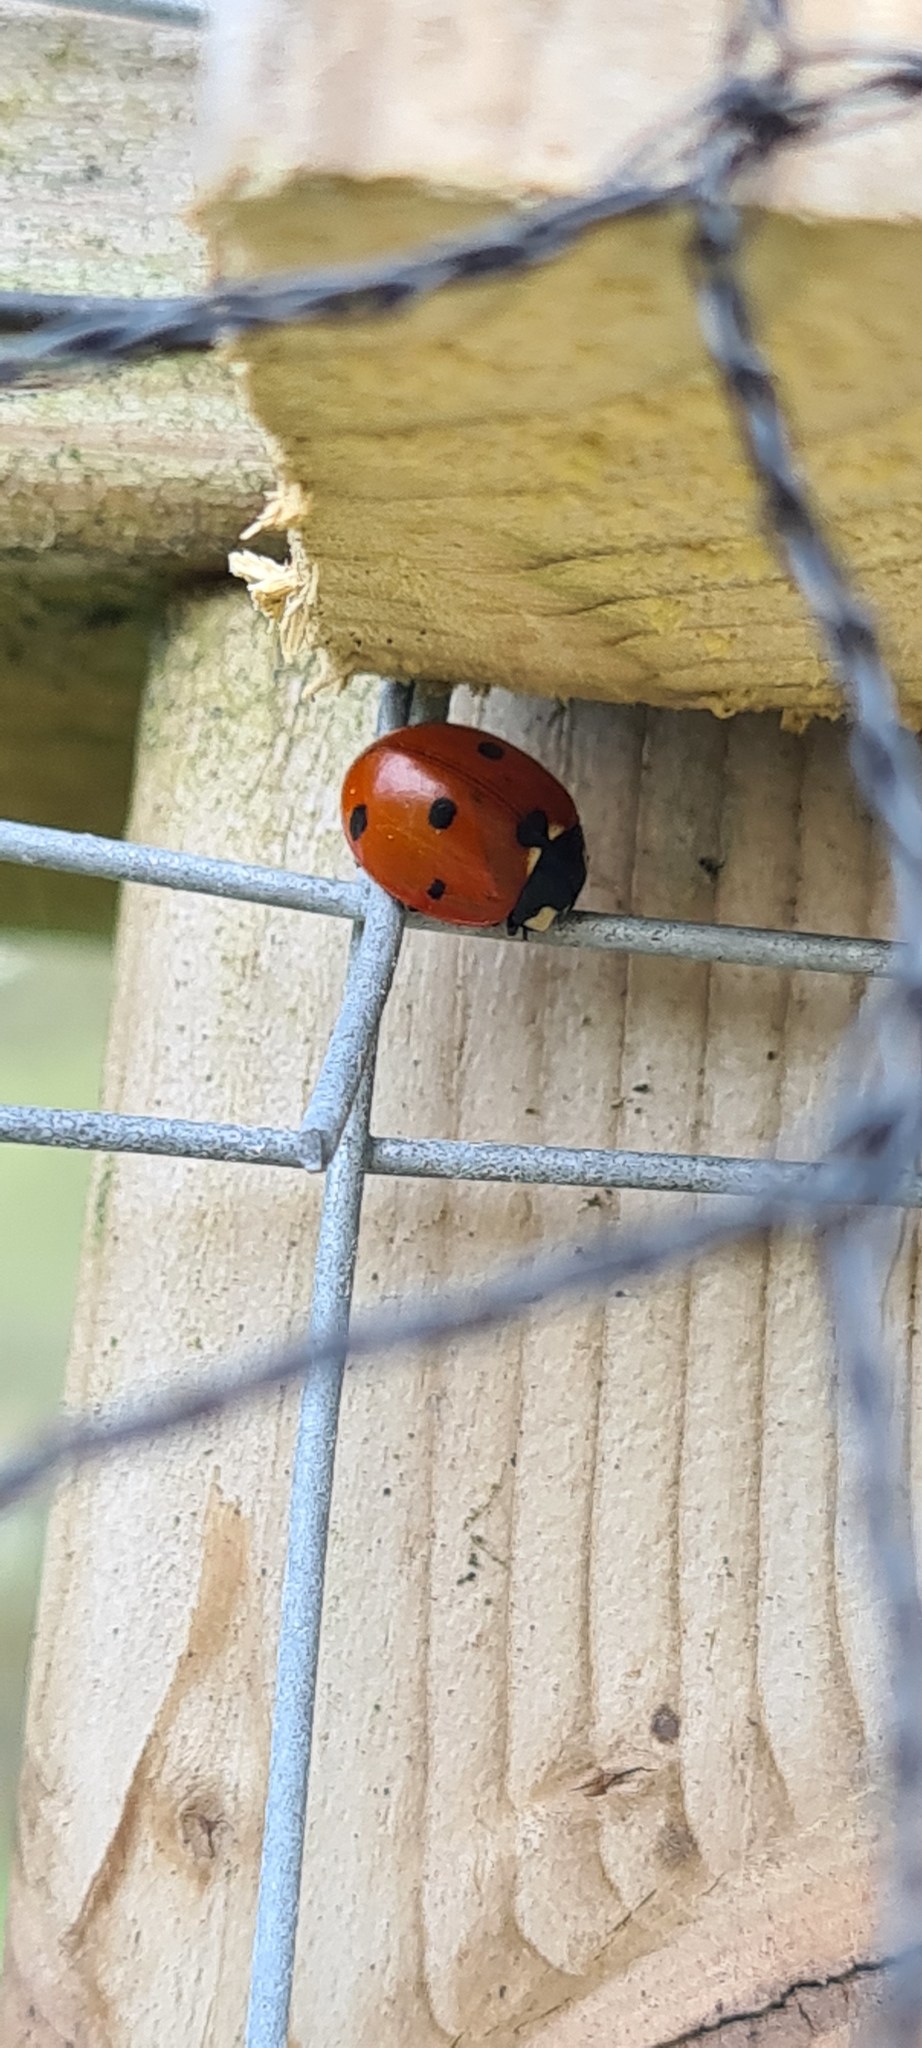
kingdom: Animalia
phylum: Arthropoda
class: Insecta
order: Coleoptera
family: Coccinellidae
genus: Coccinella
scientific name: Coccinella septempunctata
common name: Sevenspotted lady beetle
